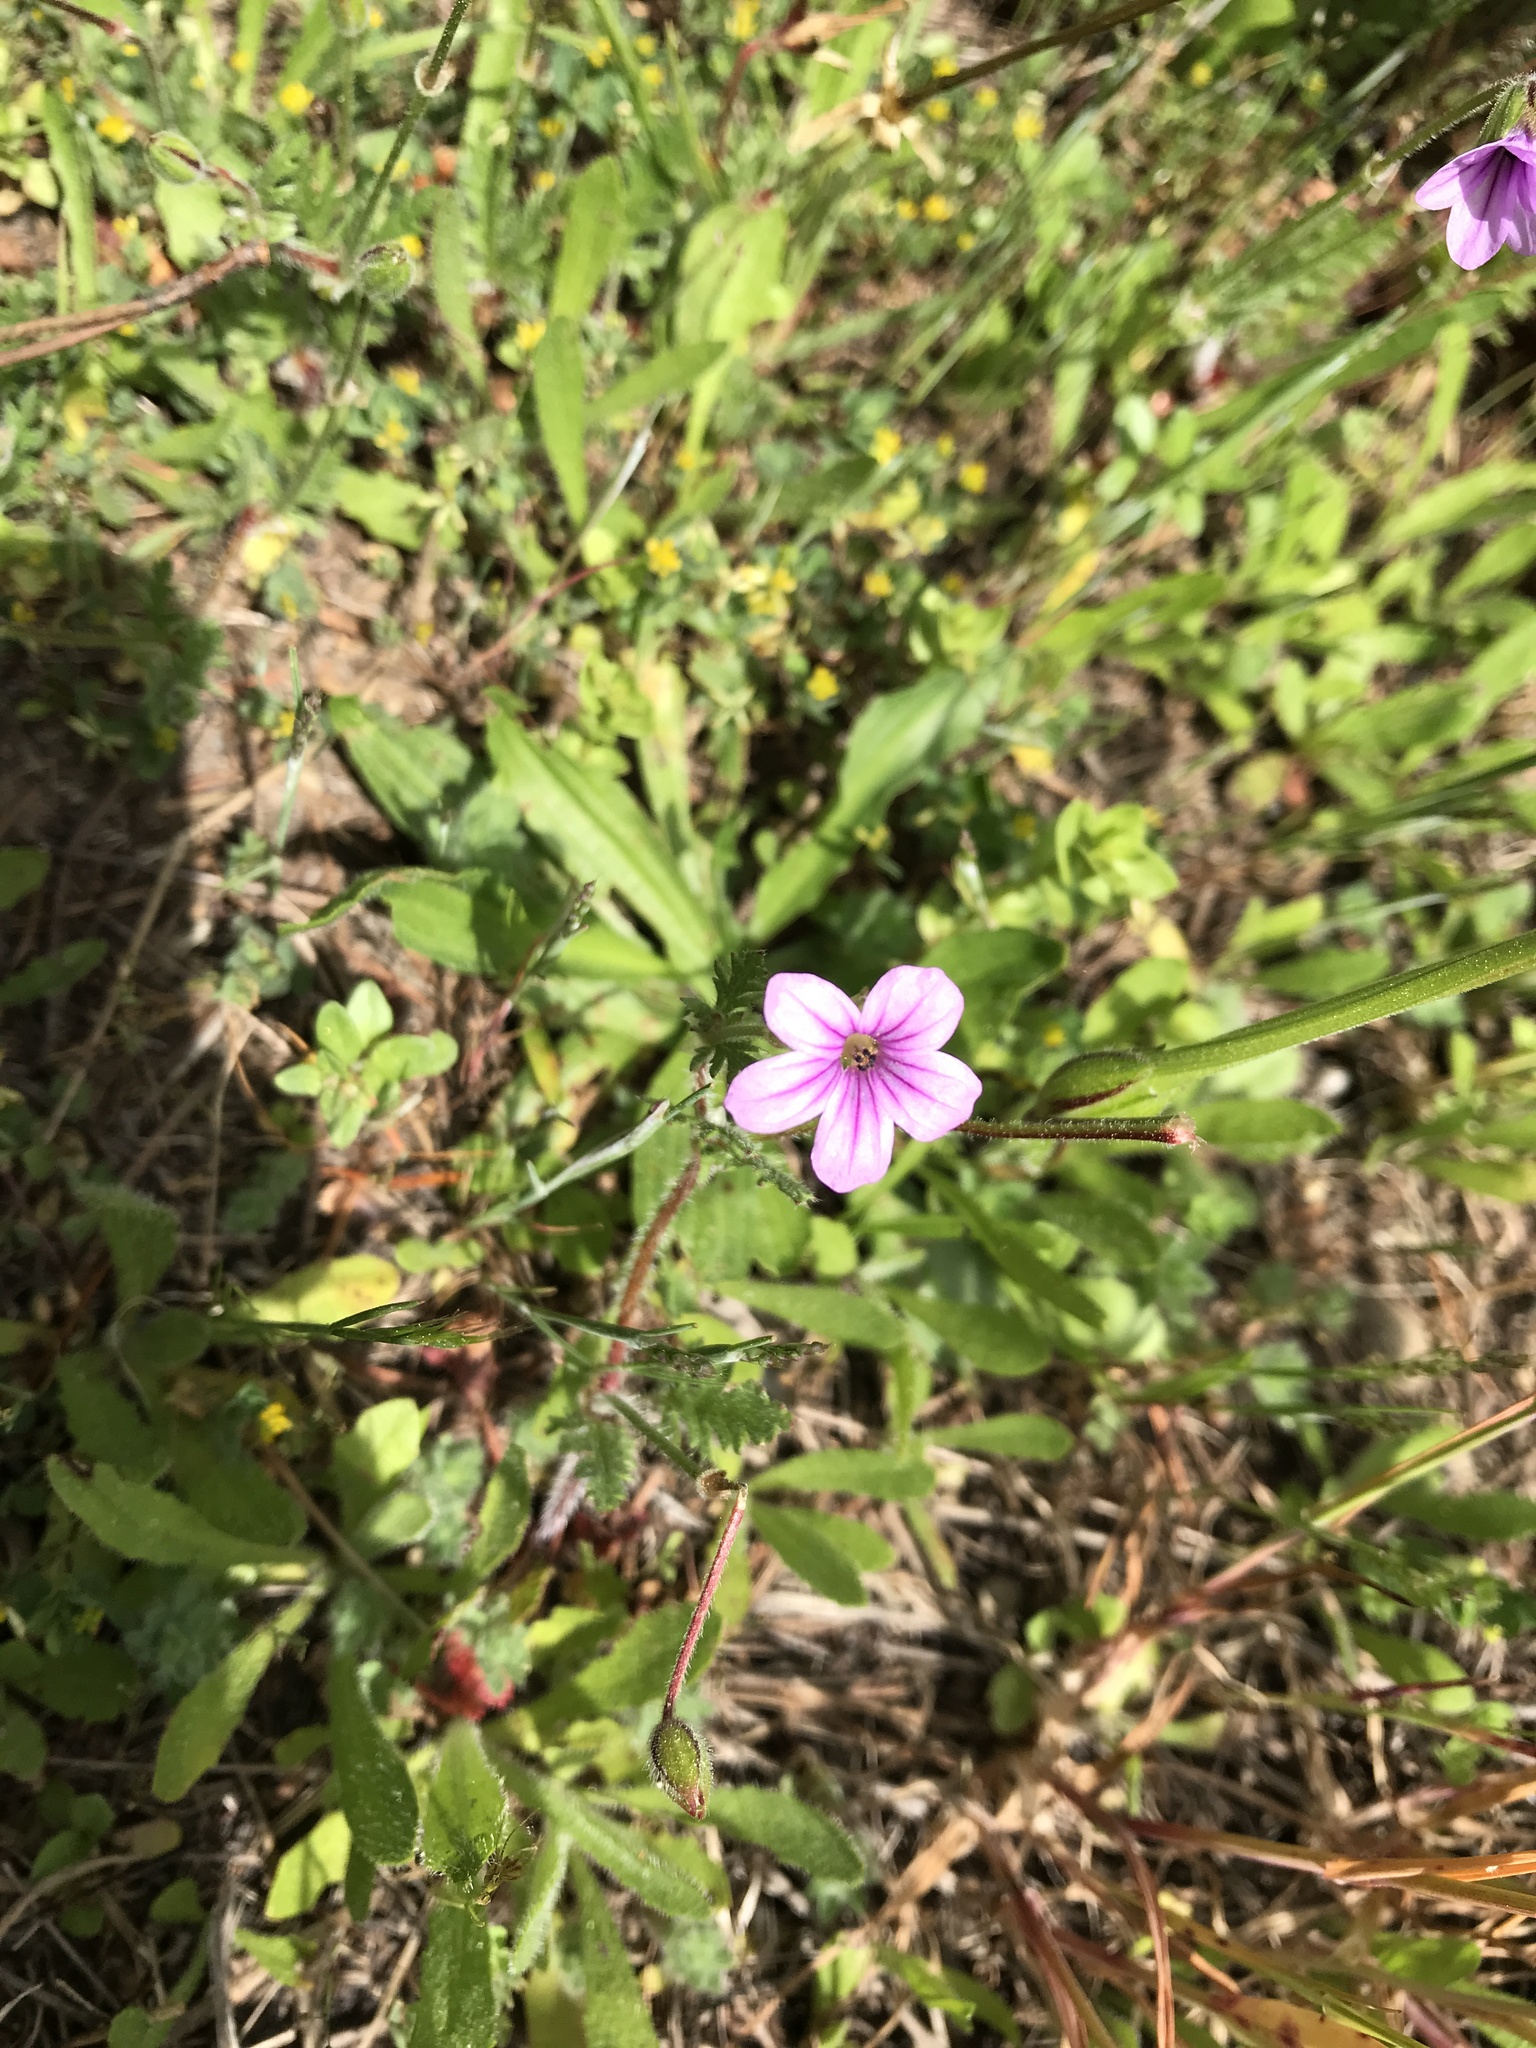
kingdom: Plantae
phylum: Tracheophyta
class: Magnoliopsida
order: Geraniales
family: Geraniaceae
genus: Erodium
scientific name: Erodium botrys
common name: Mediterranean stork's-bill
